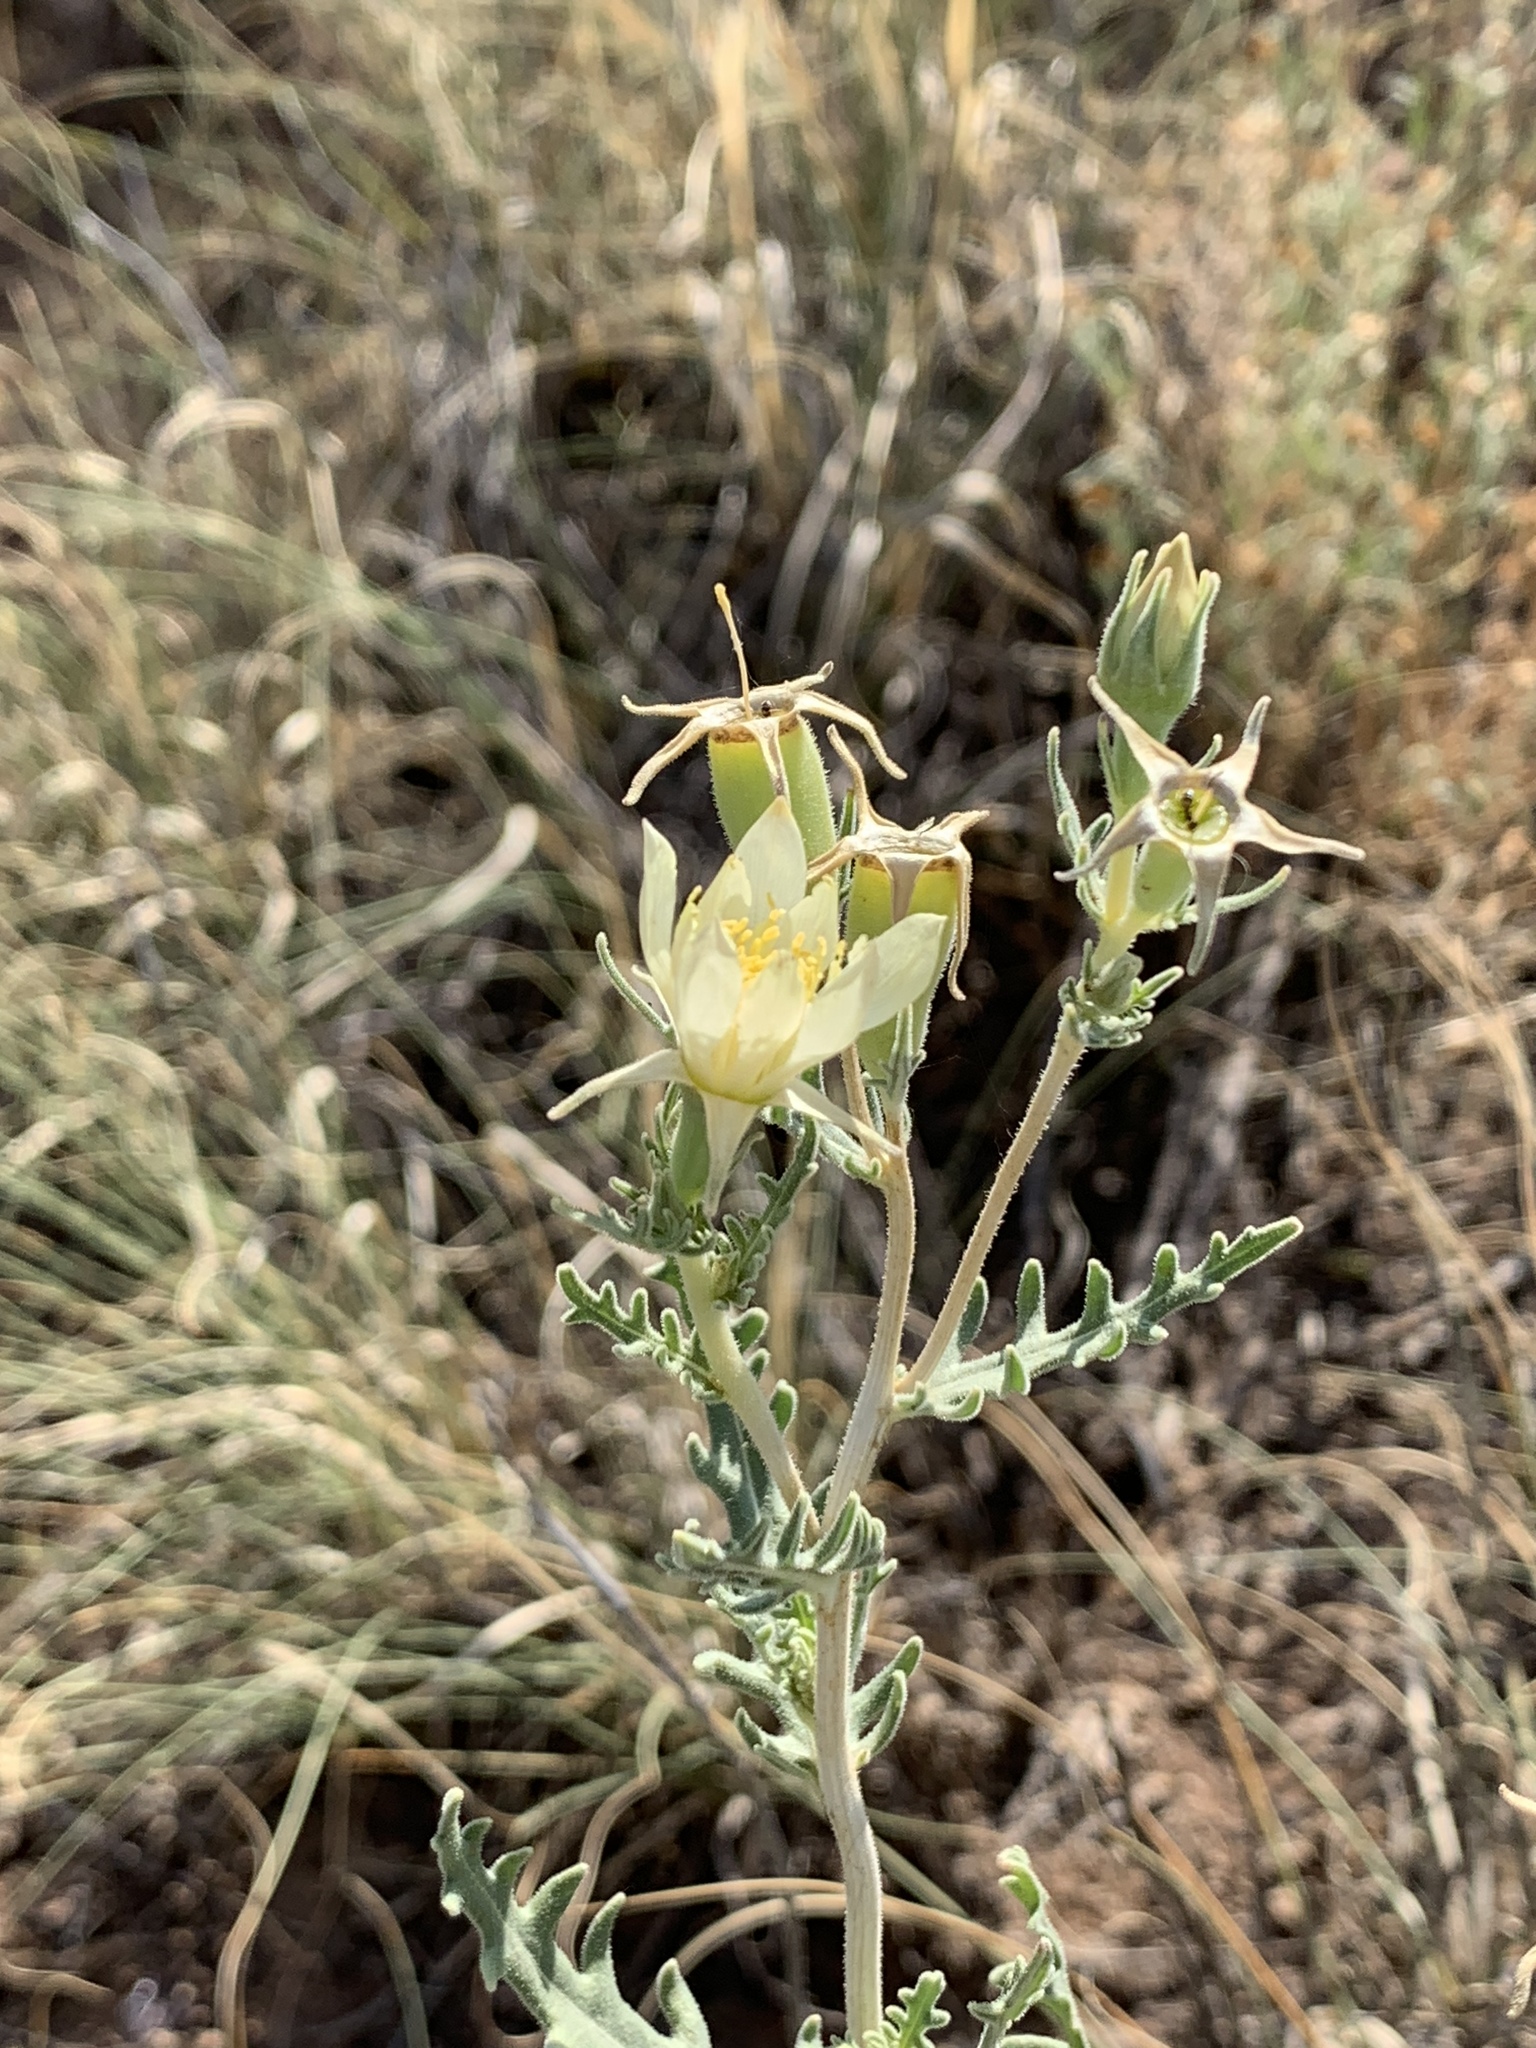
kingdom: Plantae
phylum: Tracheophyta
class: Magnoliopsida
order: Cornales
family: Loasaceae
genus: Mentzelia
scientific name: Mentzelia multiflora
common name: Adonis blazingstar
